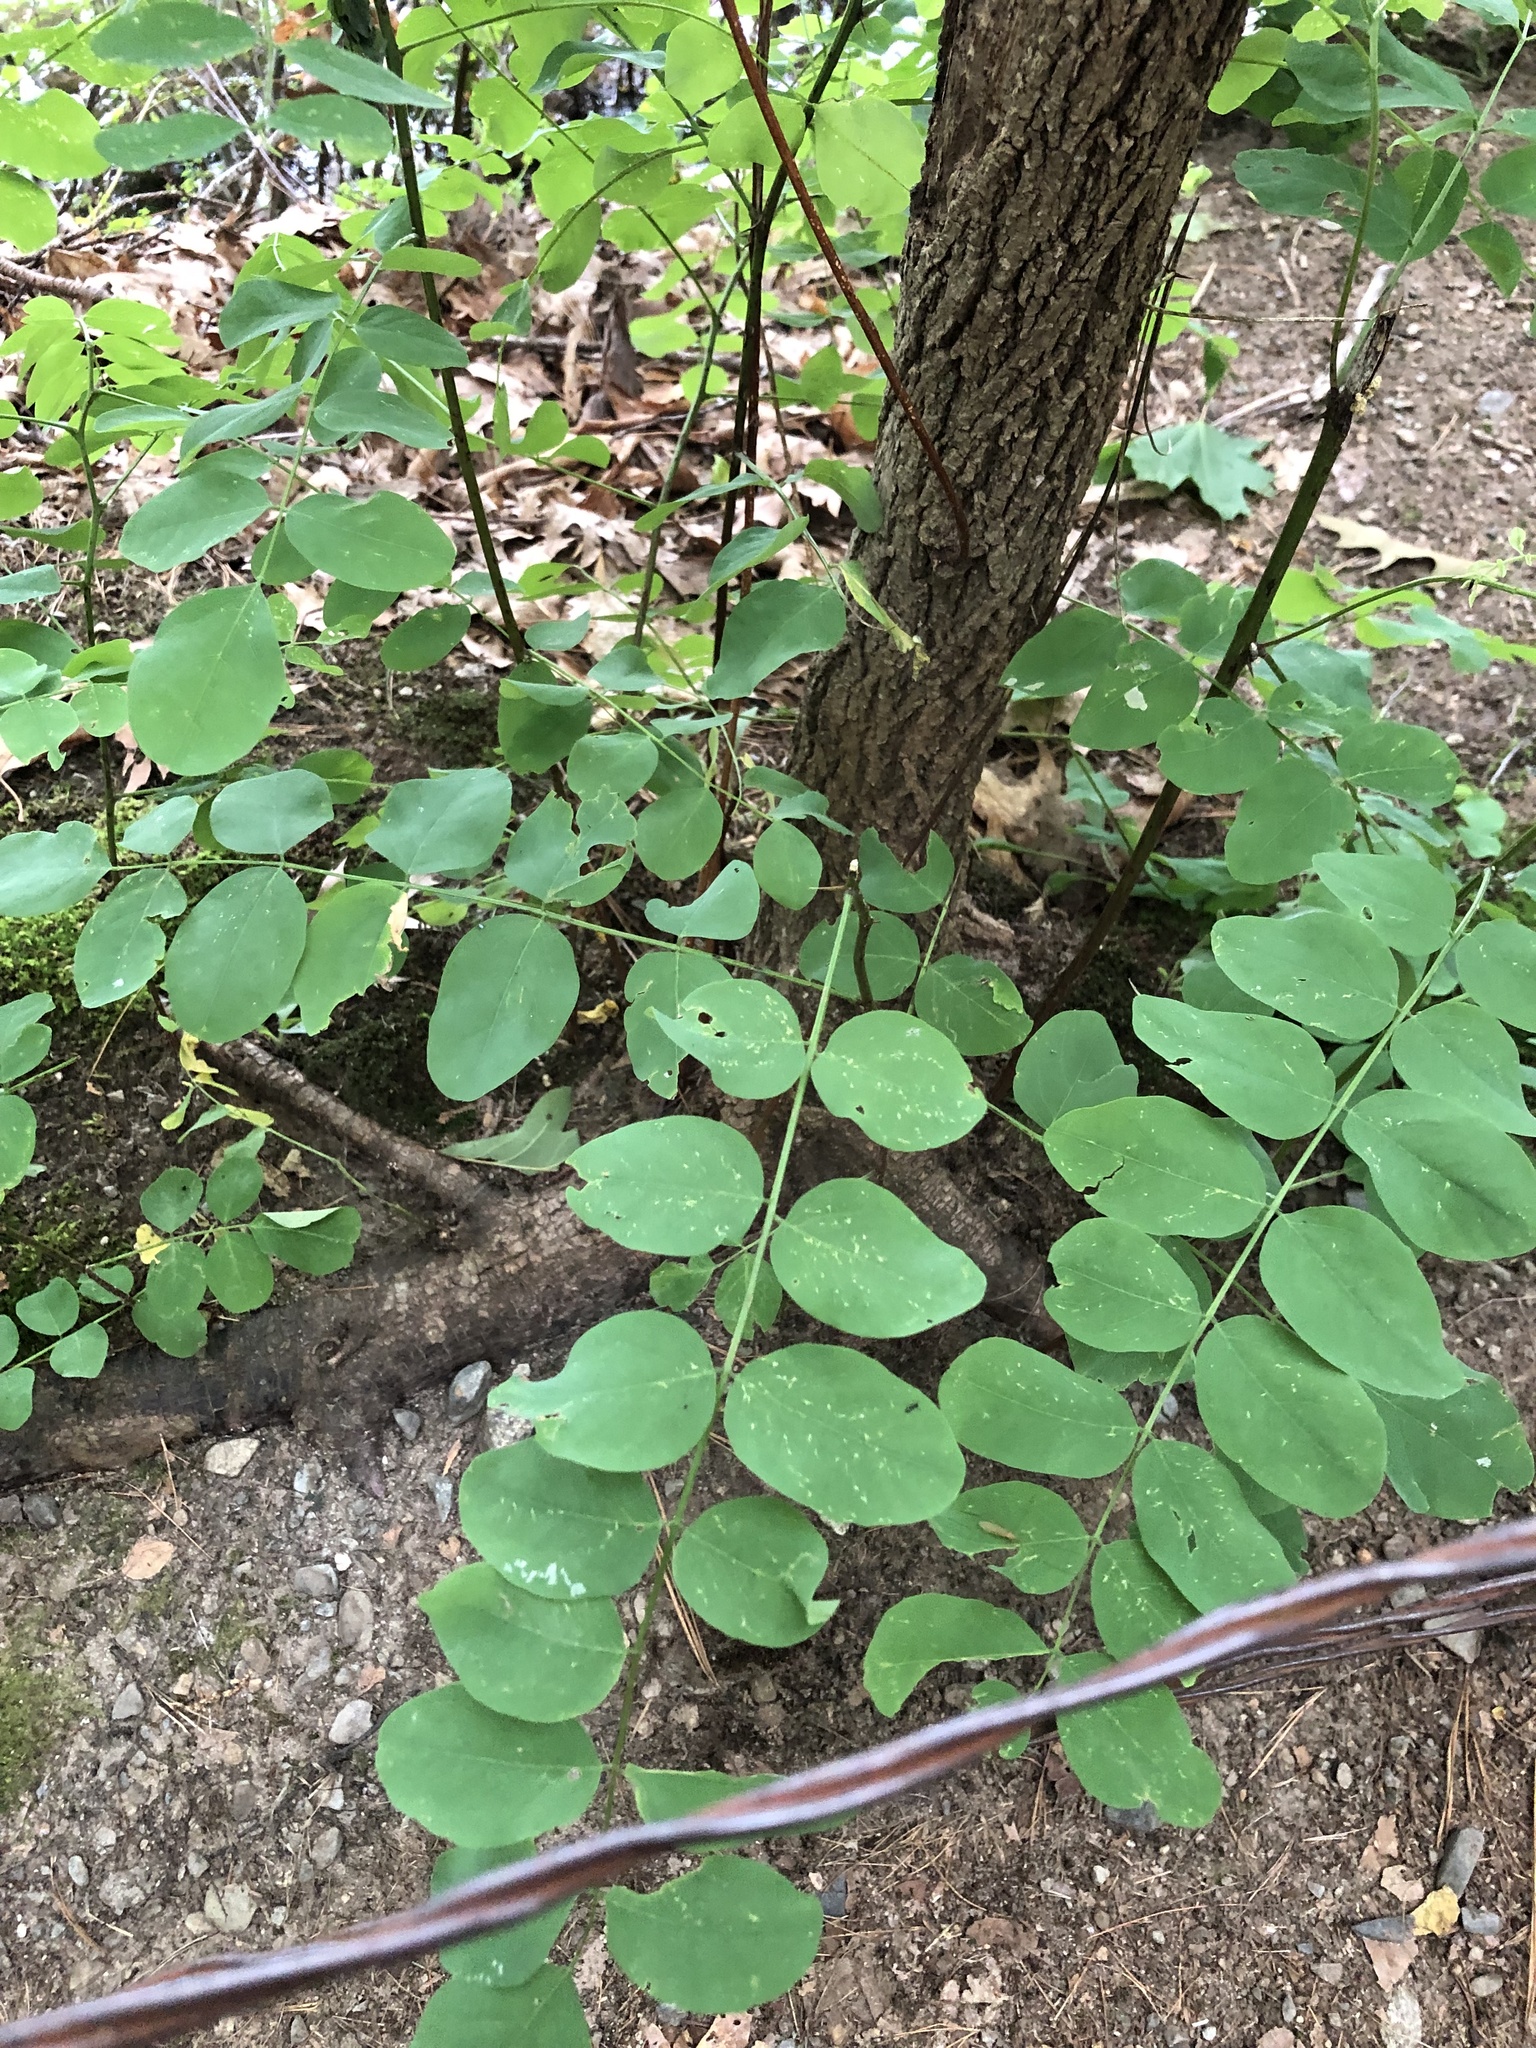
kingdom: Plantae
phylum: Tracheophyta
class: Magnoliopsida
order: Fabales
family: Fabaceae
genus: Robinia
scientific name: Robinia pseudoacacia
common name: Black locust
